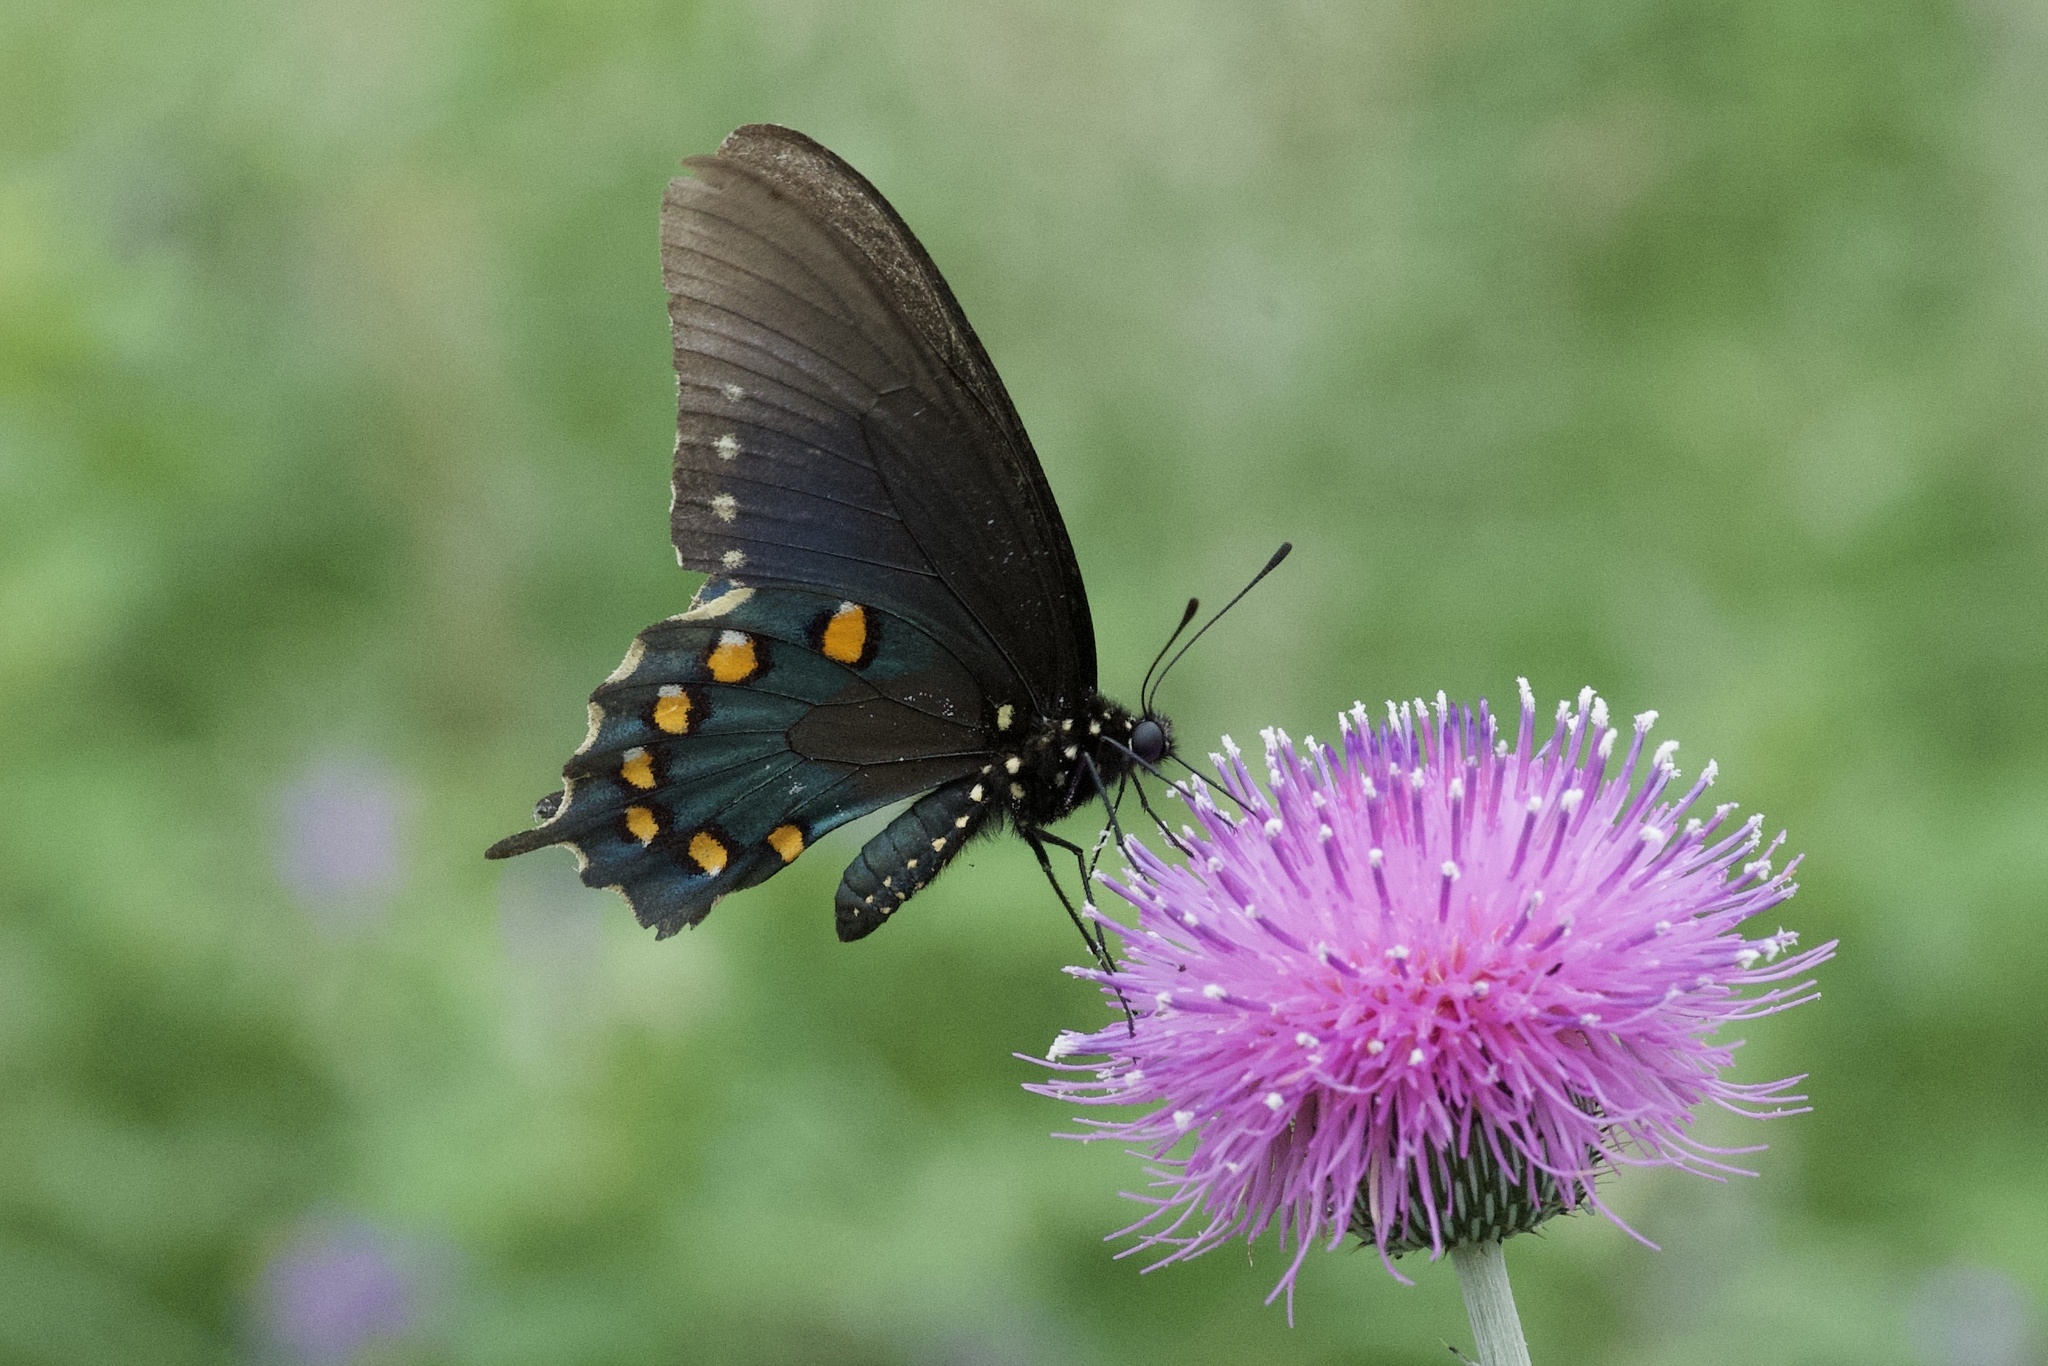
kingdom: Animalia
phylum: Arthropoda
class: Insecta
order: Lepidoptera
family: Papilionidae
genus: Battus
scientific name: Battus philenor
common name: Pipevine swallowtail
